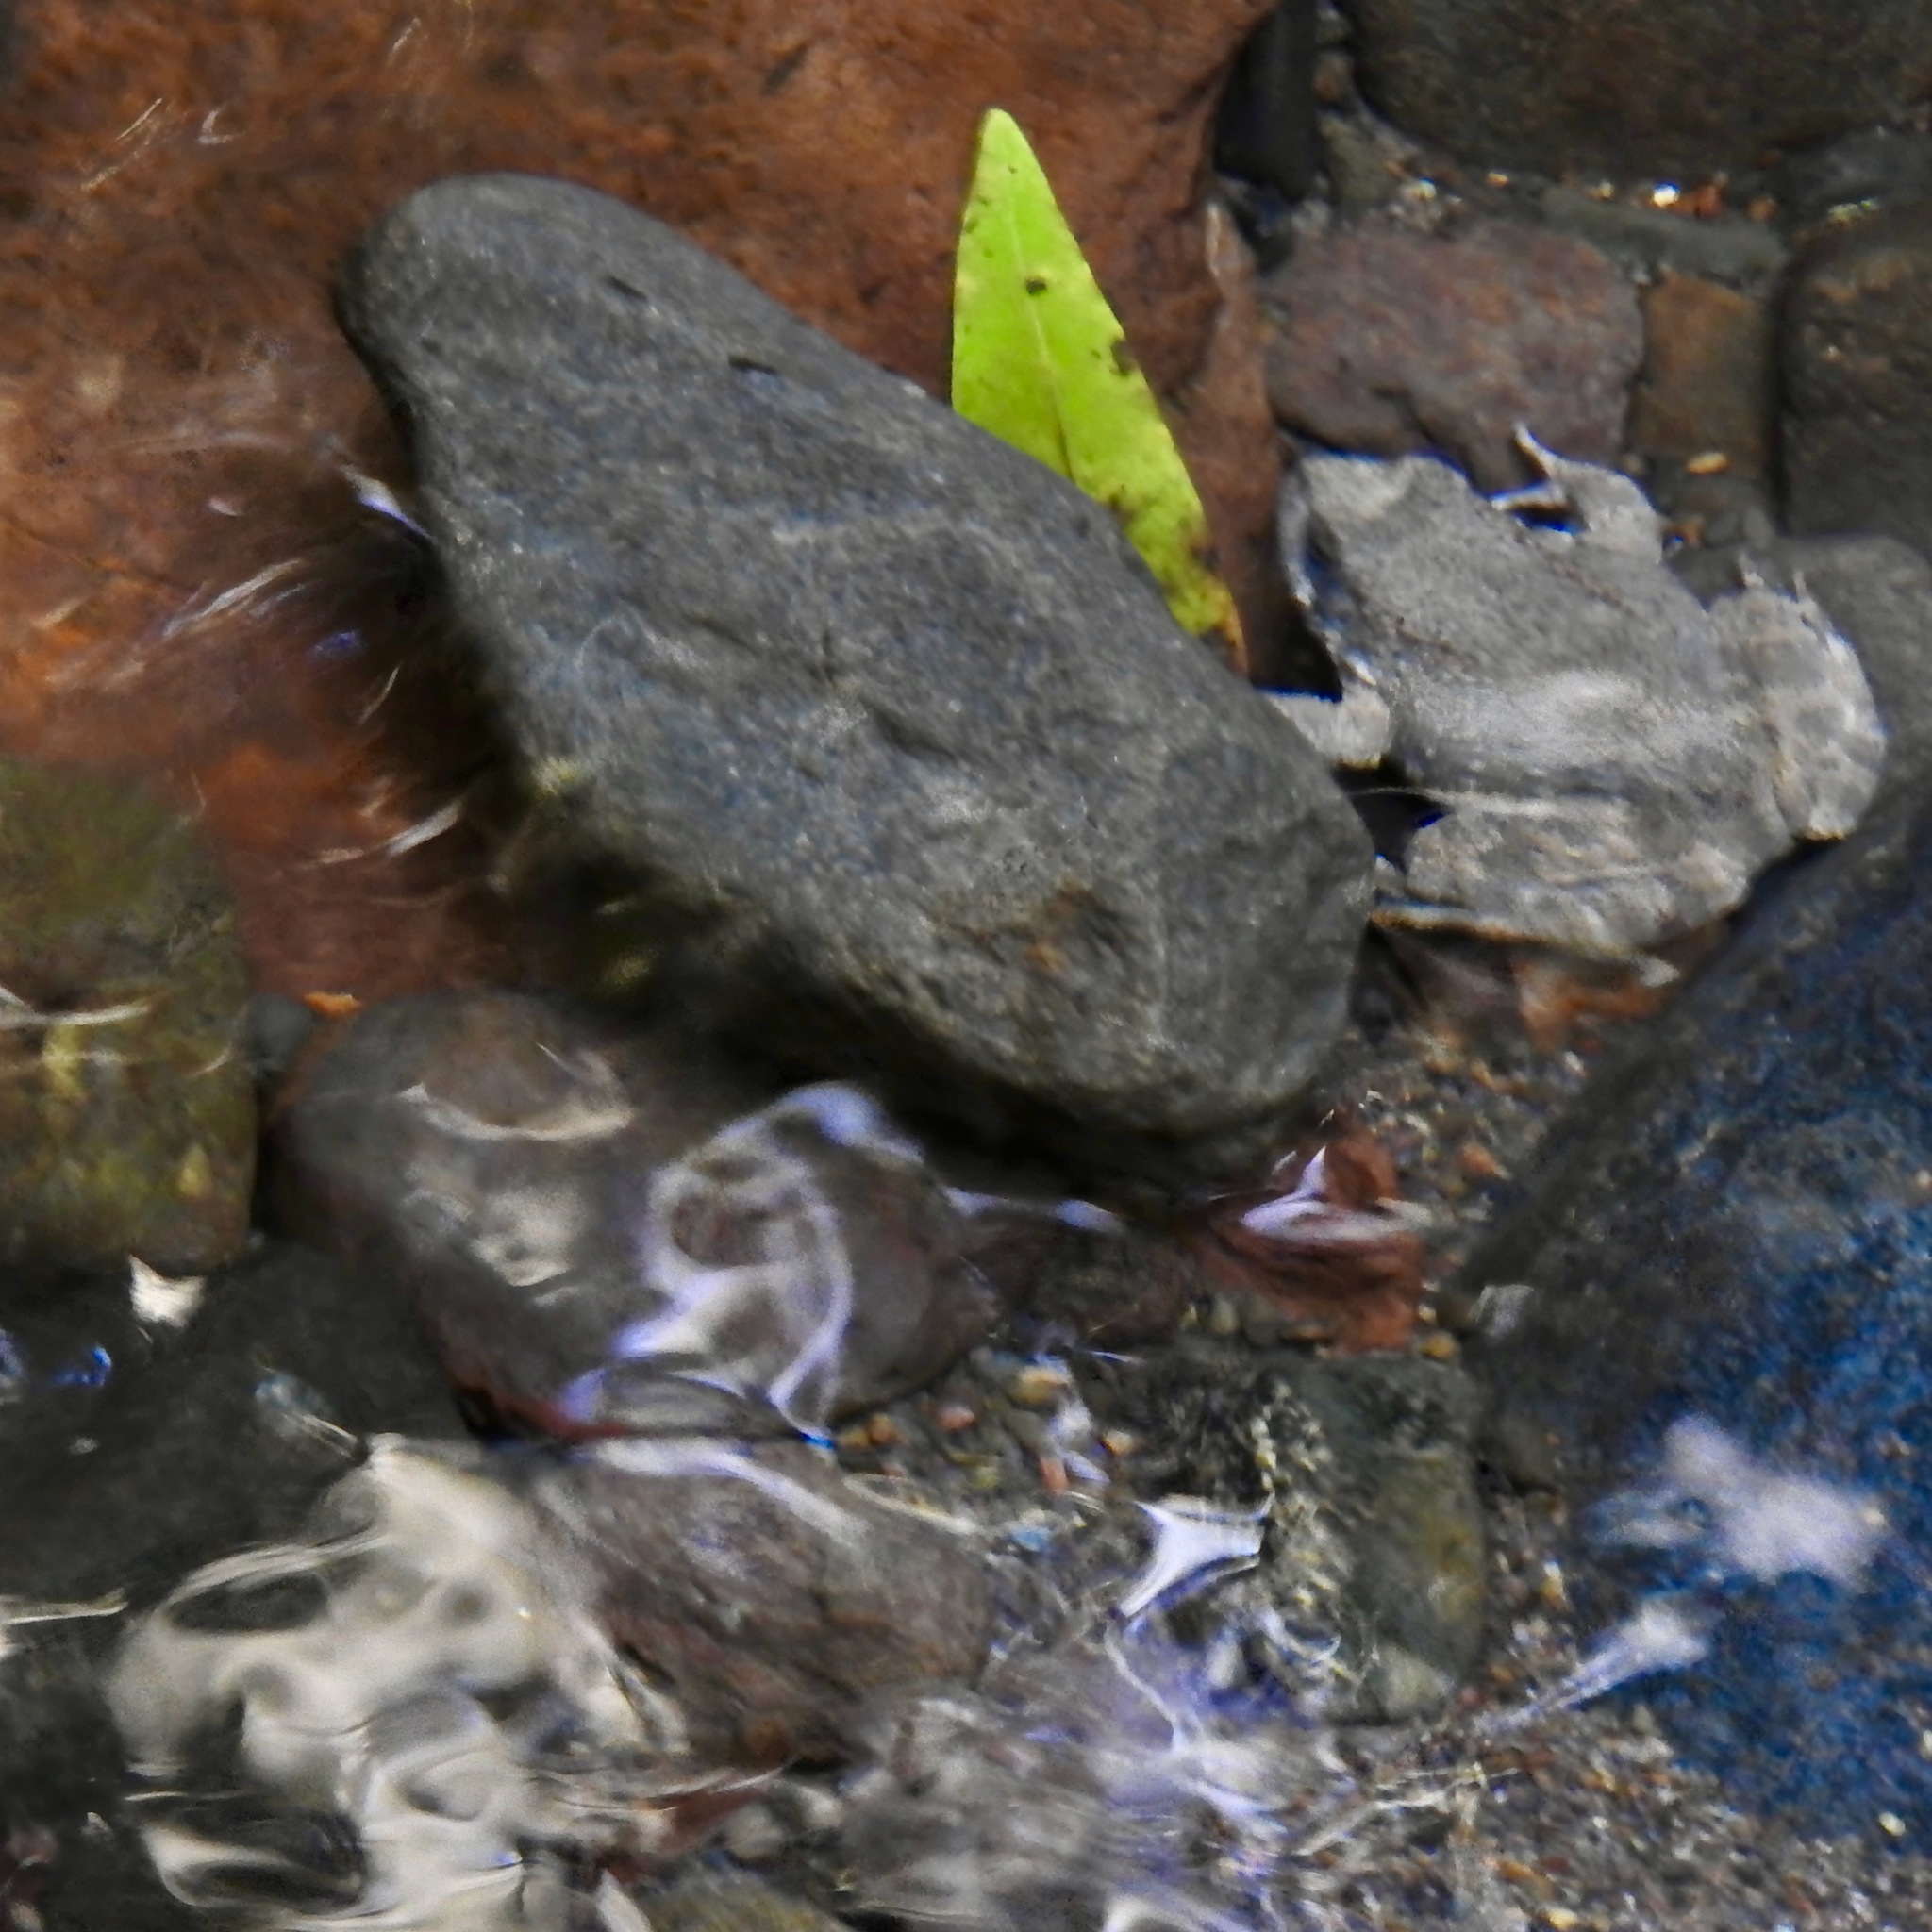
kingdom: Animalia
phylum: Chordata
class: Amphibia
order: Anura
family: Ranidae
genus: Rana
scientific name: Rana boylii
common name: Foothill yellow-legged frog
